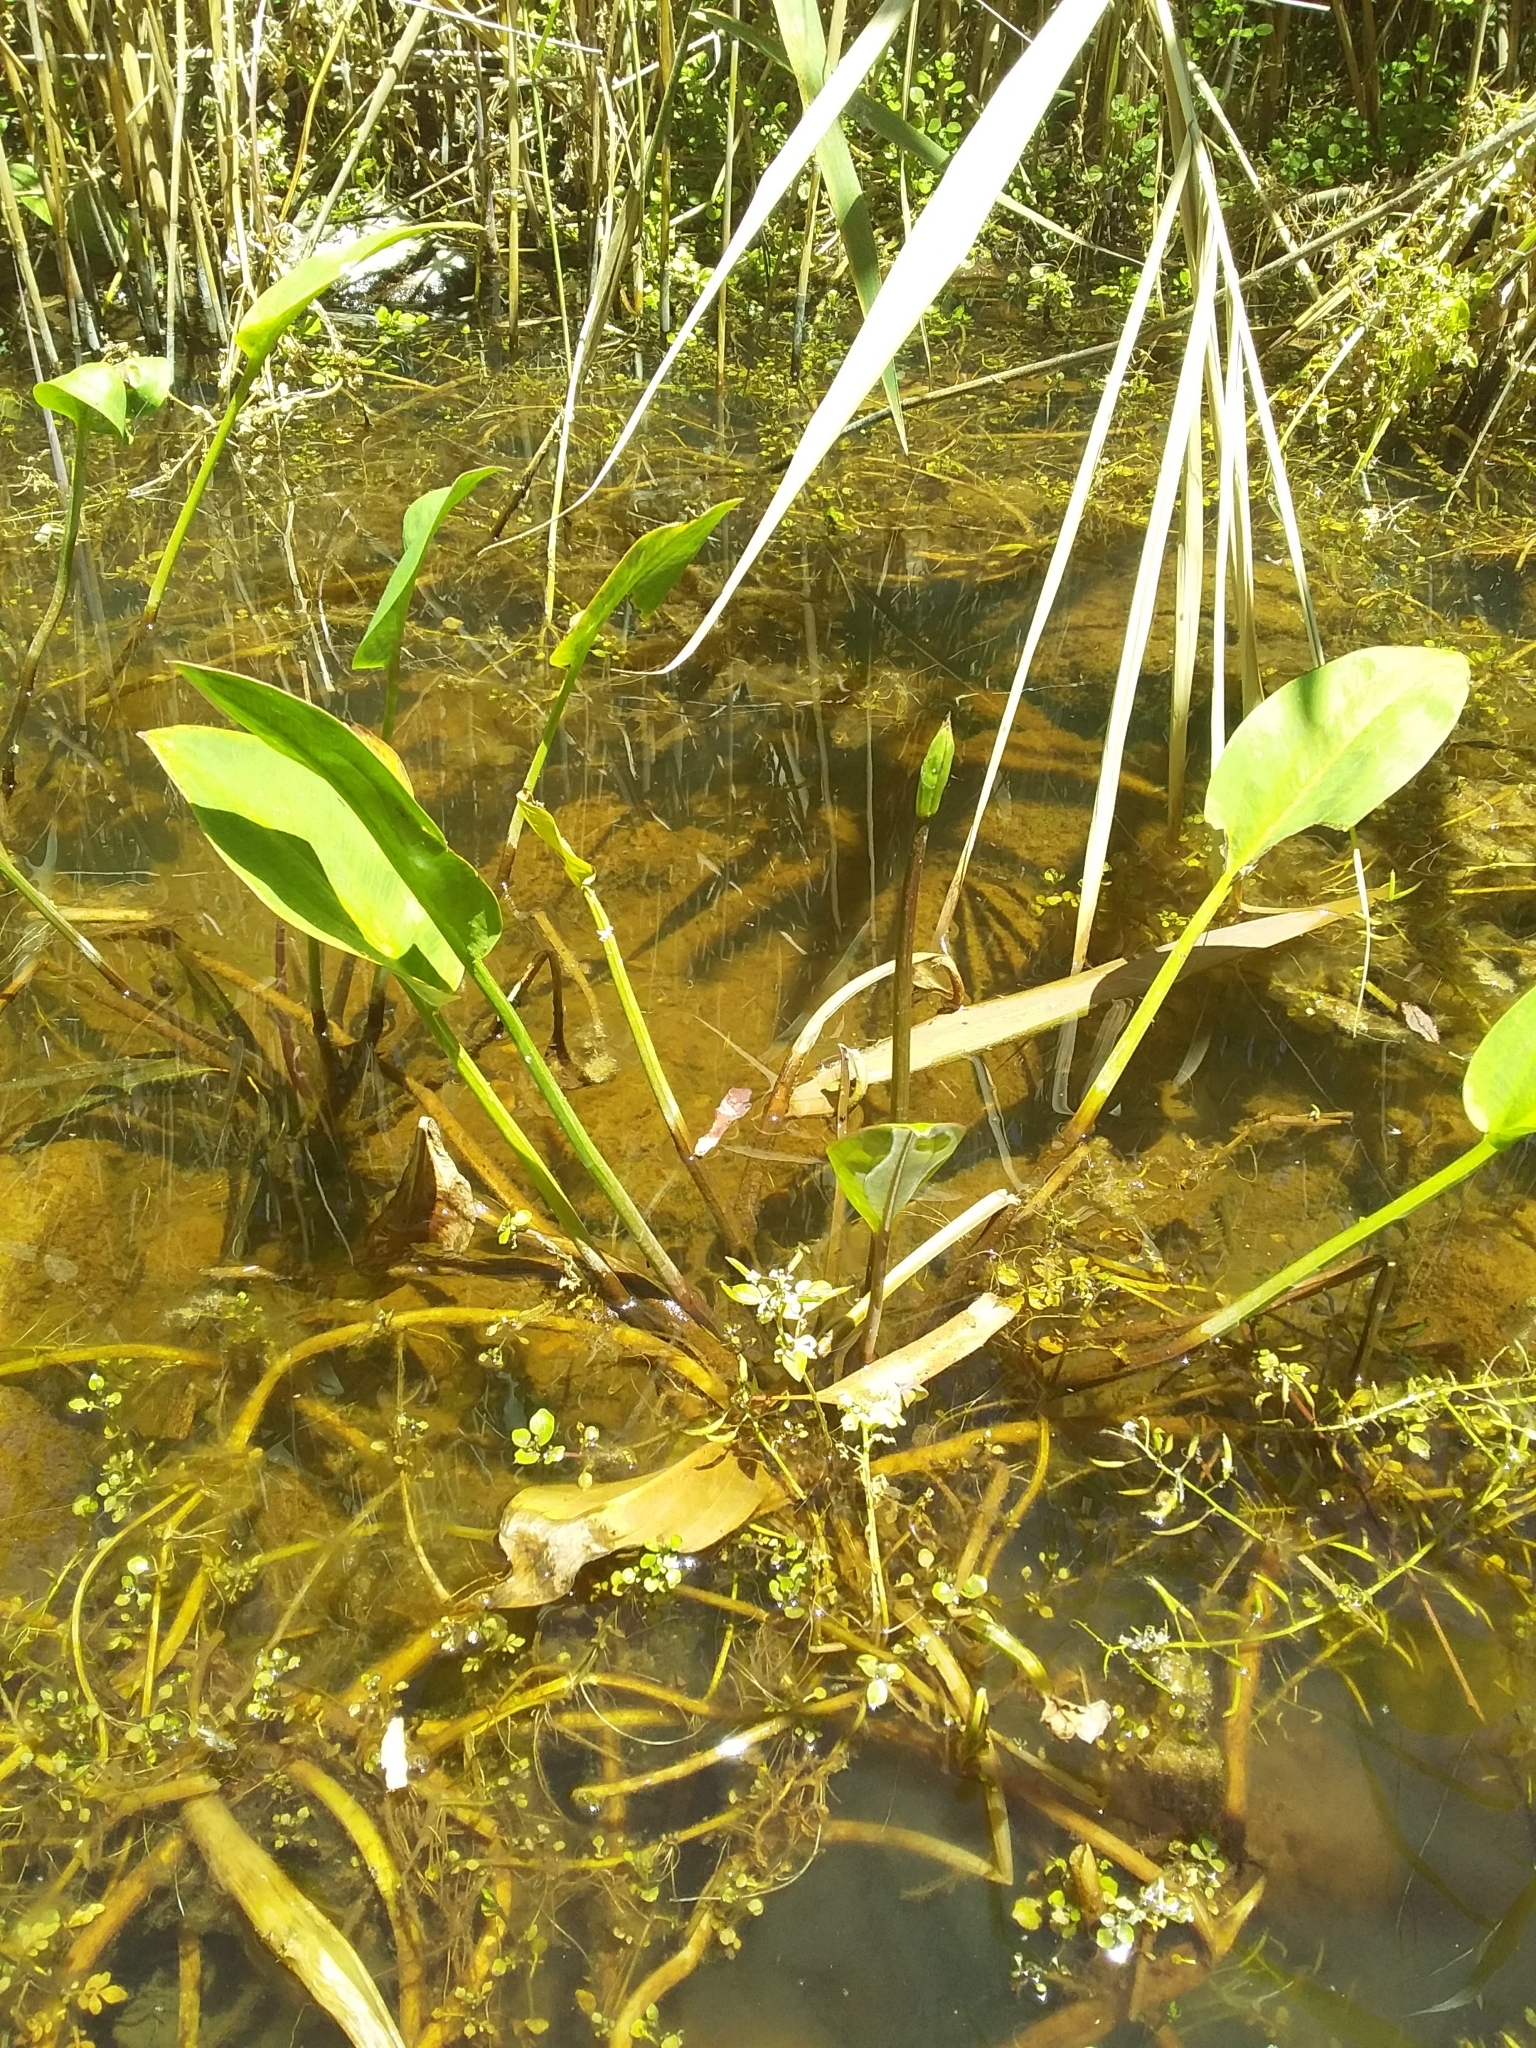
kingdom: Plantae
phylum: Tracheophyta
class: Liliopsida
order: Alismatales
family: Alismataceae
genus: Alisma
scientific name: Alisma plantago-aquatica
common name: Water-plantain
